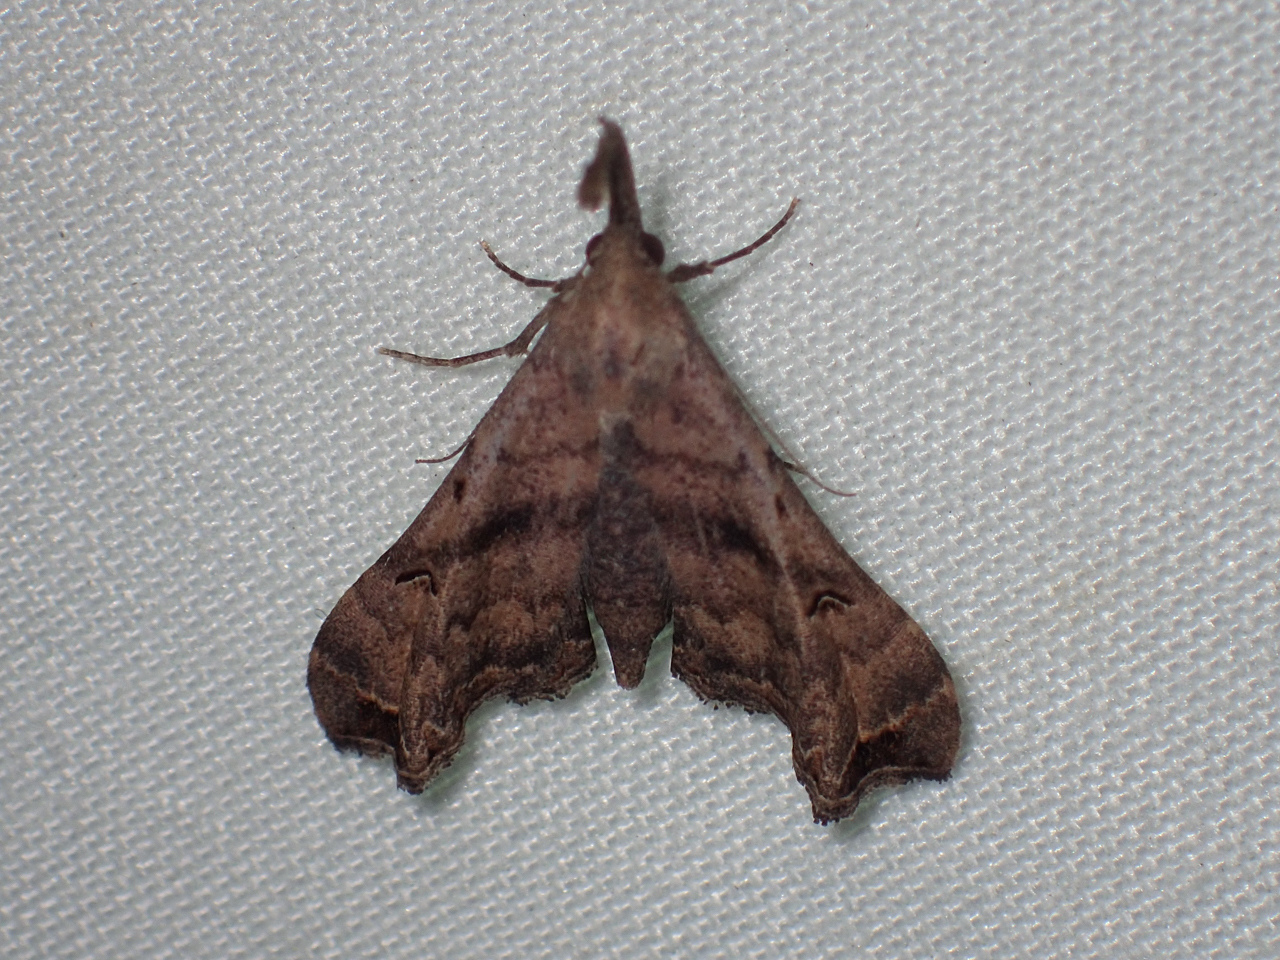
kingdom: Animalia
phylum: Arthropoda
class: Insecta
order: Lepidoptera
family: Erebidae
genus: Palthis
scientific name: Palthis asopialis
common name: Faint-spotted palthis moth
